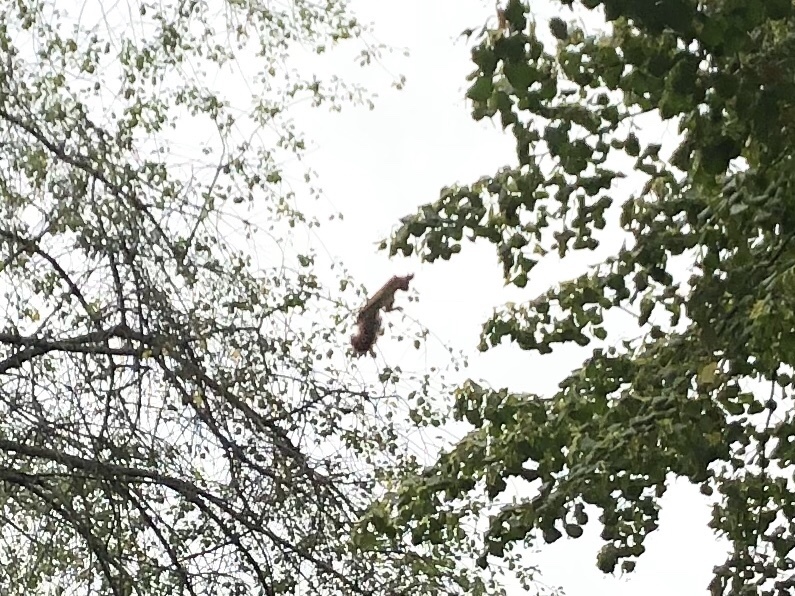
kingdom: Animalia
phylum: Chordata
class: Mammalia
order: Rodentia
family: Sciuridae
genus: Sciurus
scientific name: Sciurus vulgaris
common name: Eurasian red squirrel
